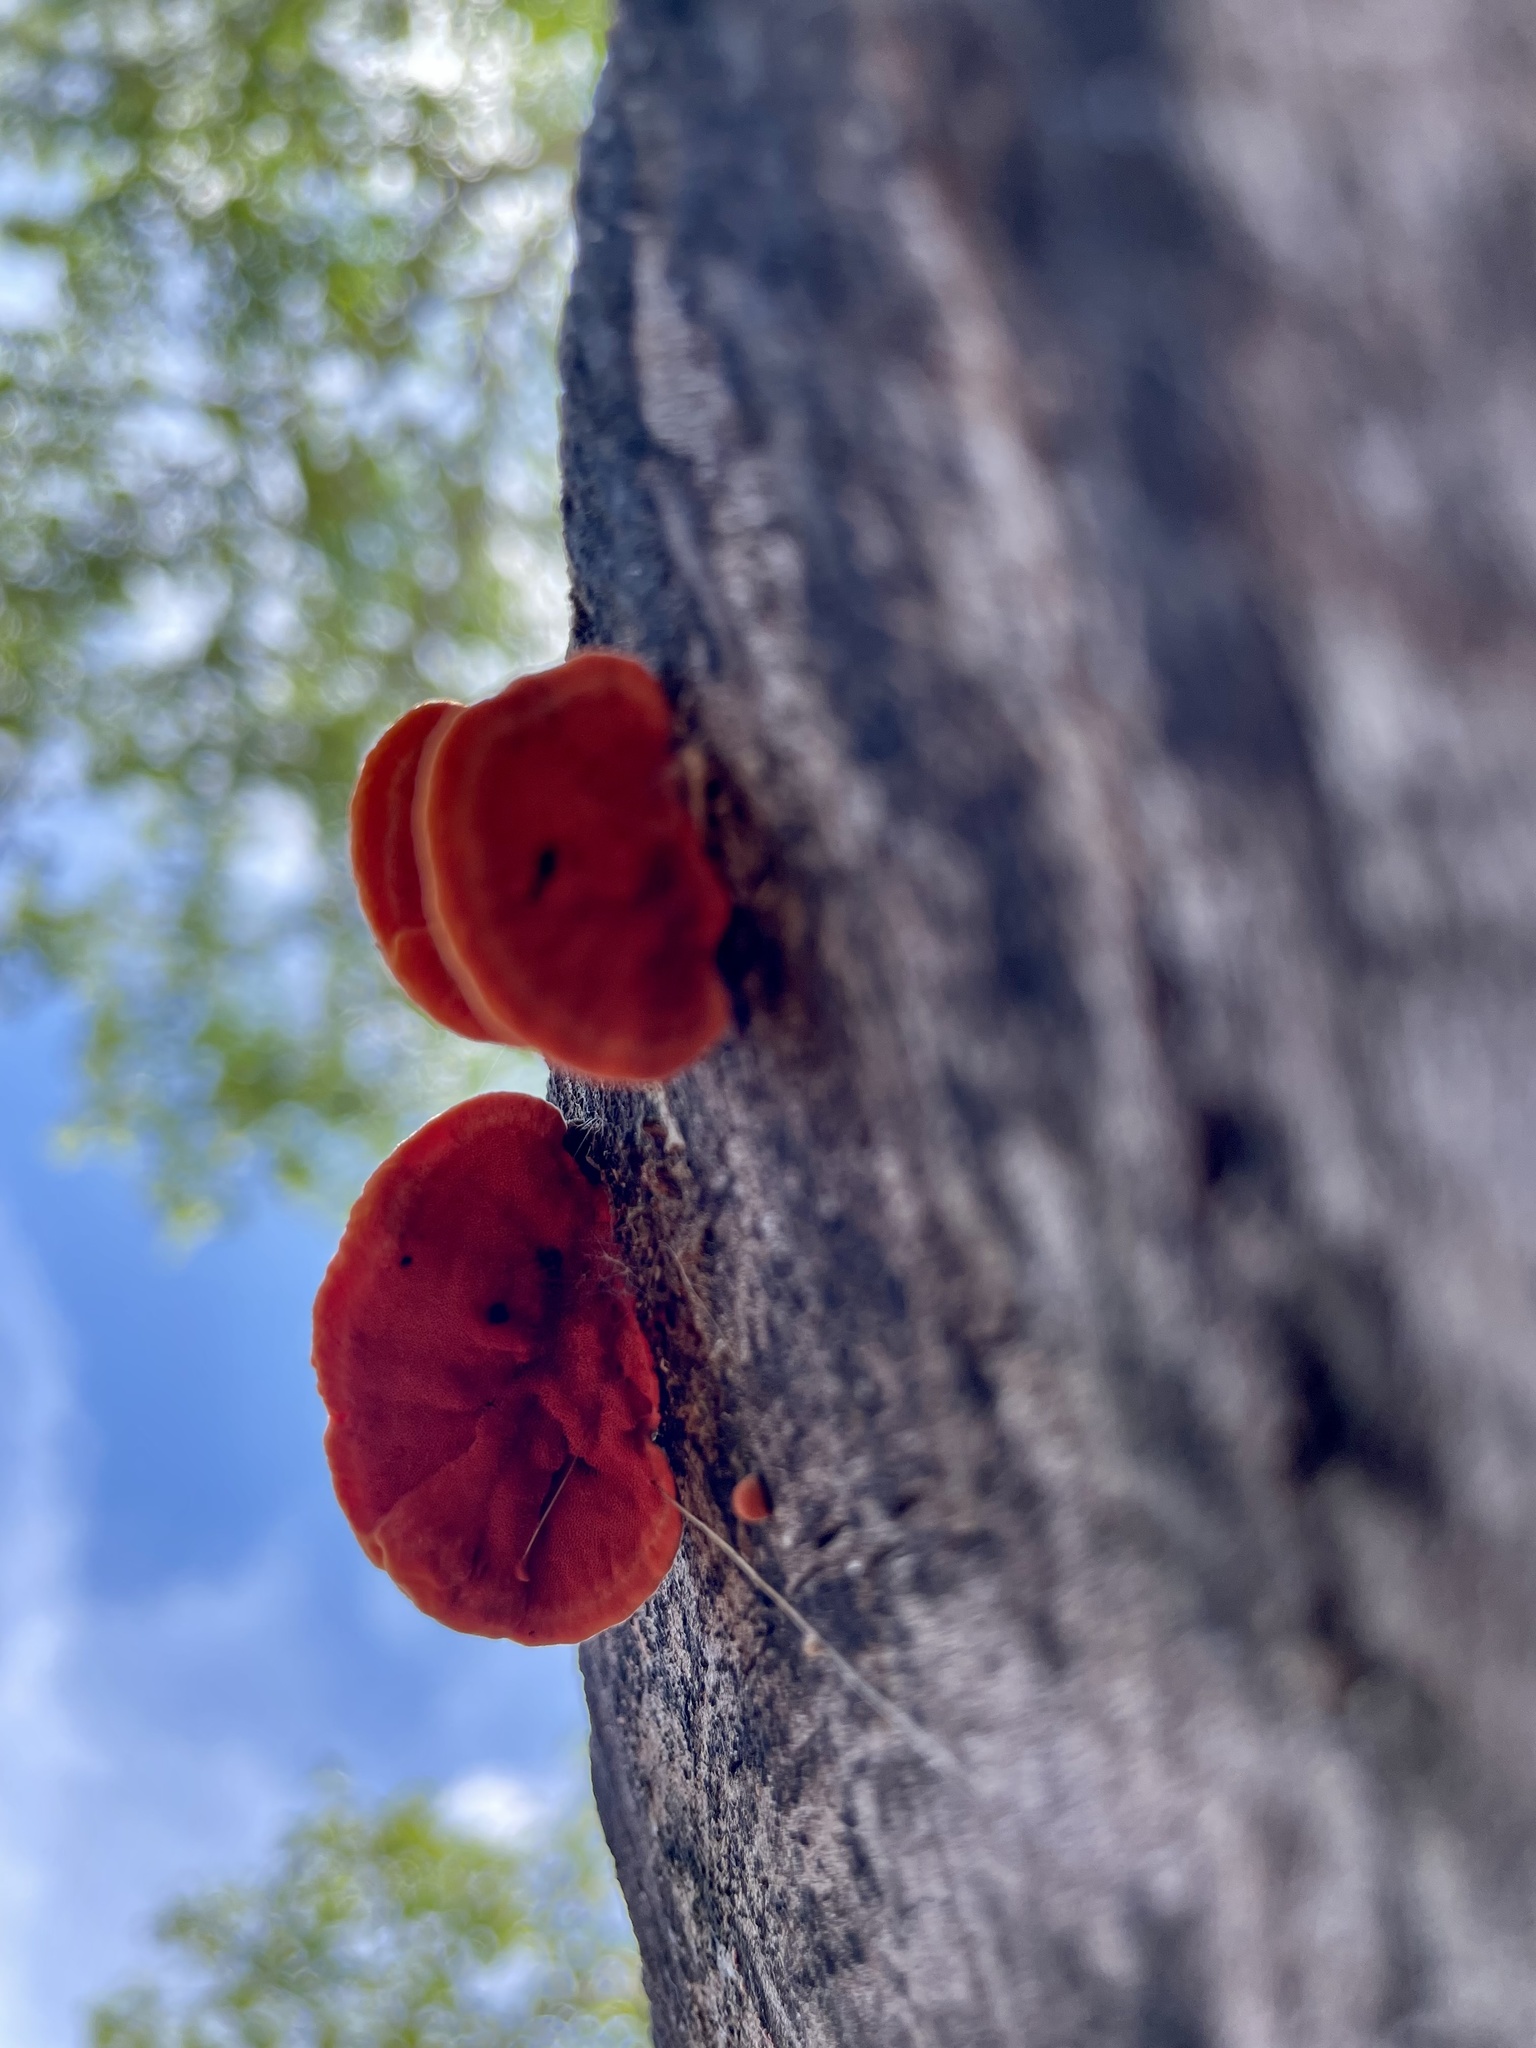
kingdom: Fungi
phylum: Basidiomycota
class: Agaricomycetes
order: Polyporales
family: Polyporaceae
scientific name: Polyporaceae
